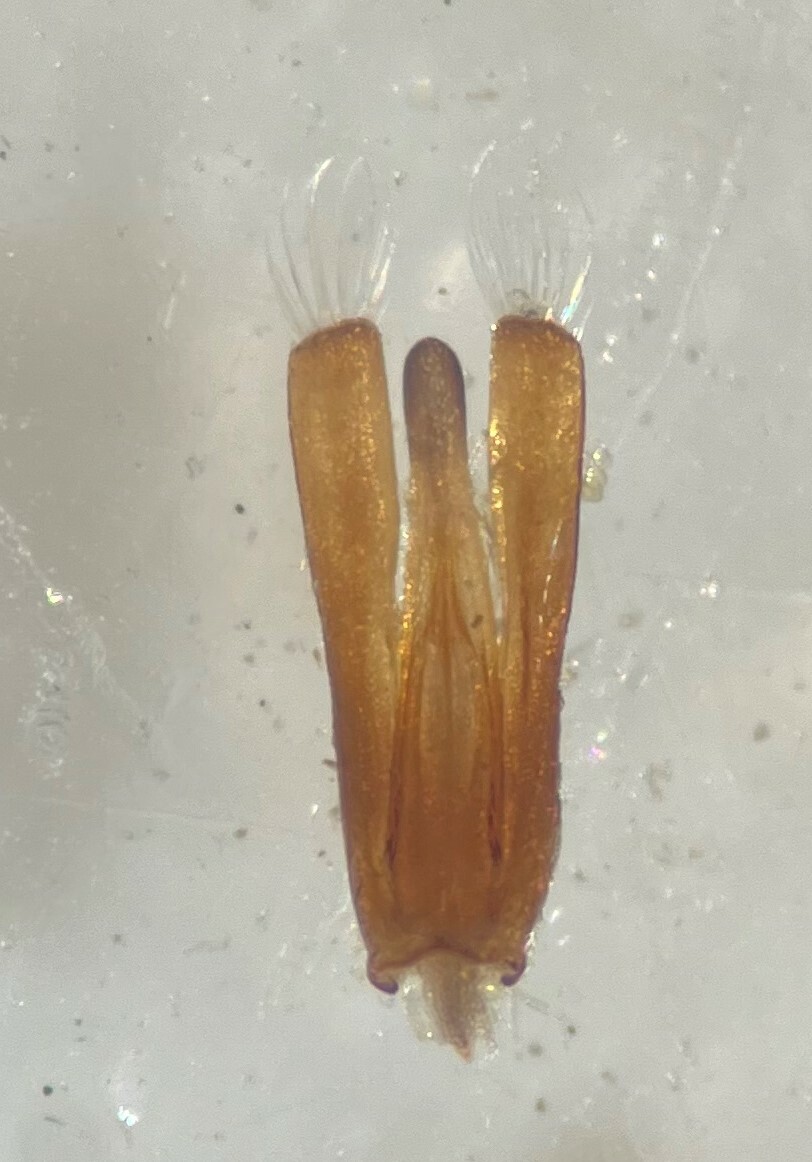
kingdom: Animalia
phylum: Arthropoda
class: Insecta
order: Coleoptera
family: Gyrinidae
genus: Gyrinus
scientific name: Gyrinus parcus
